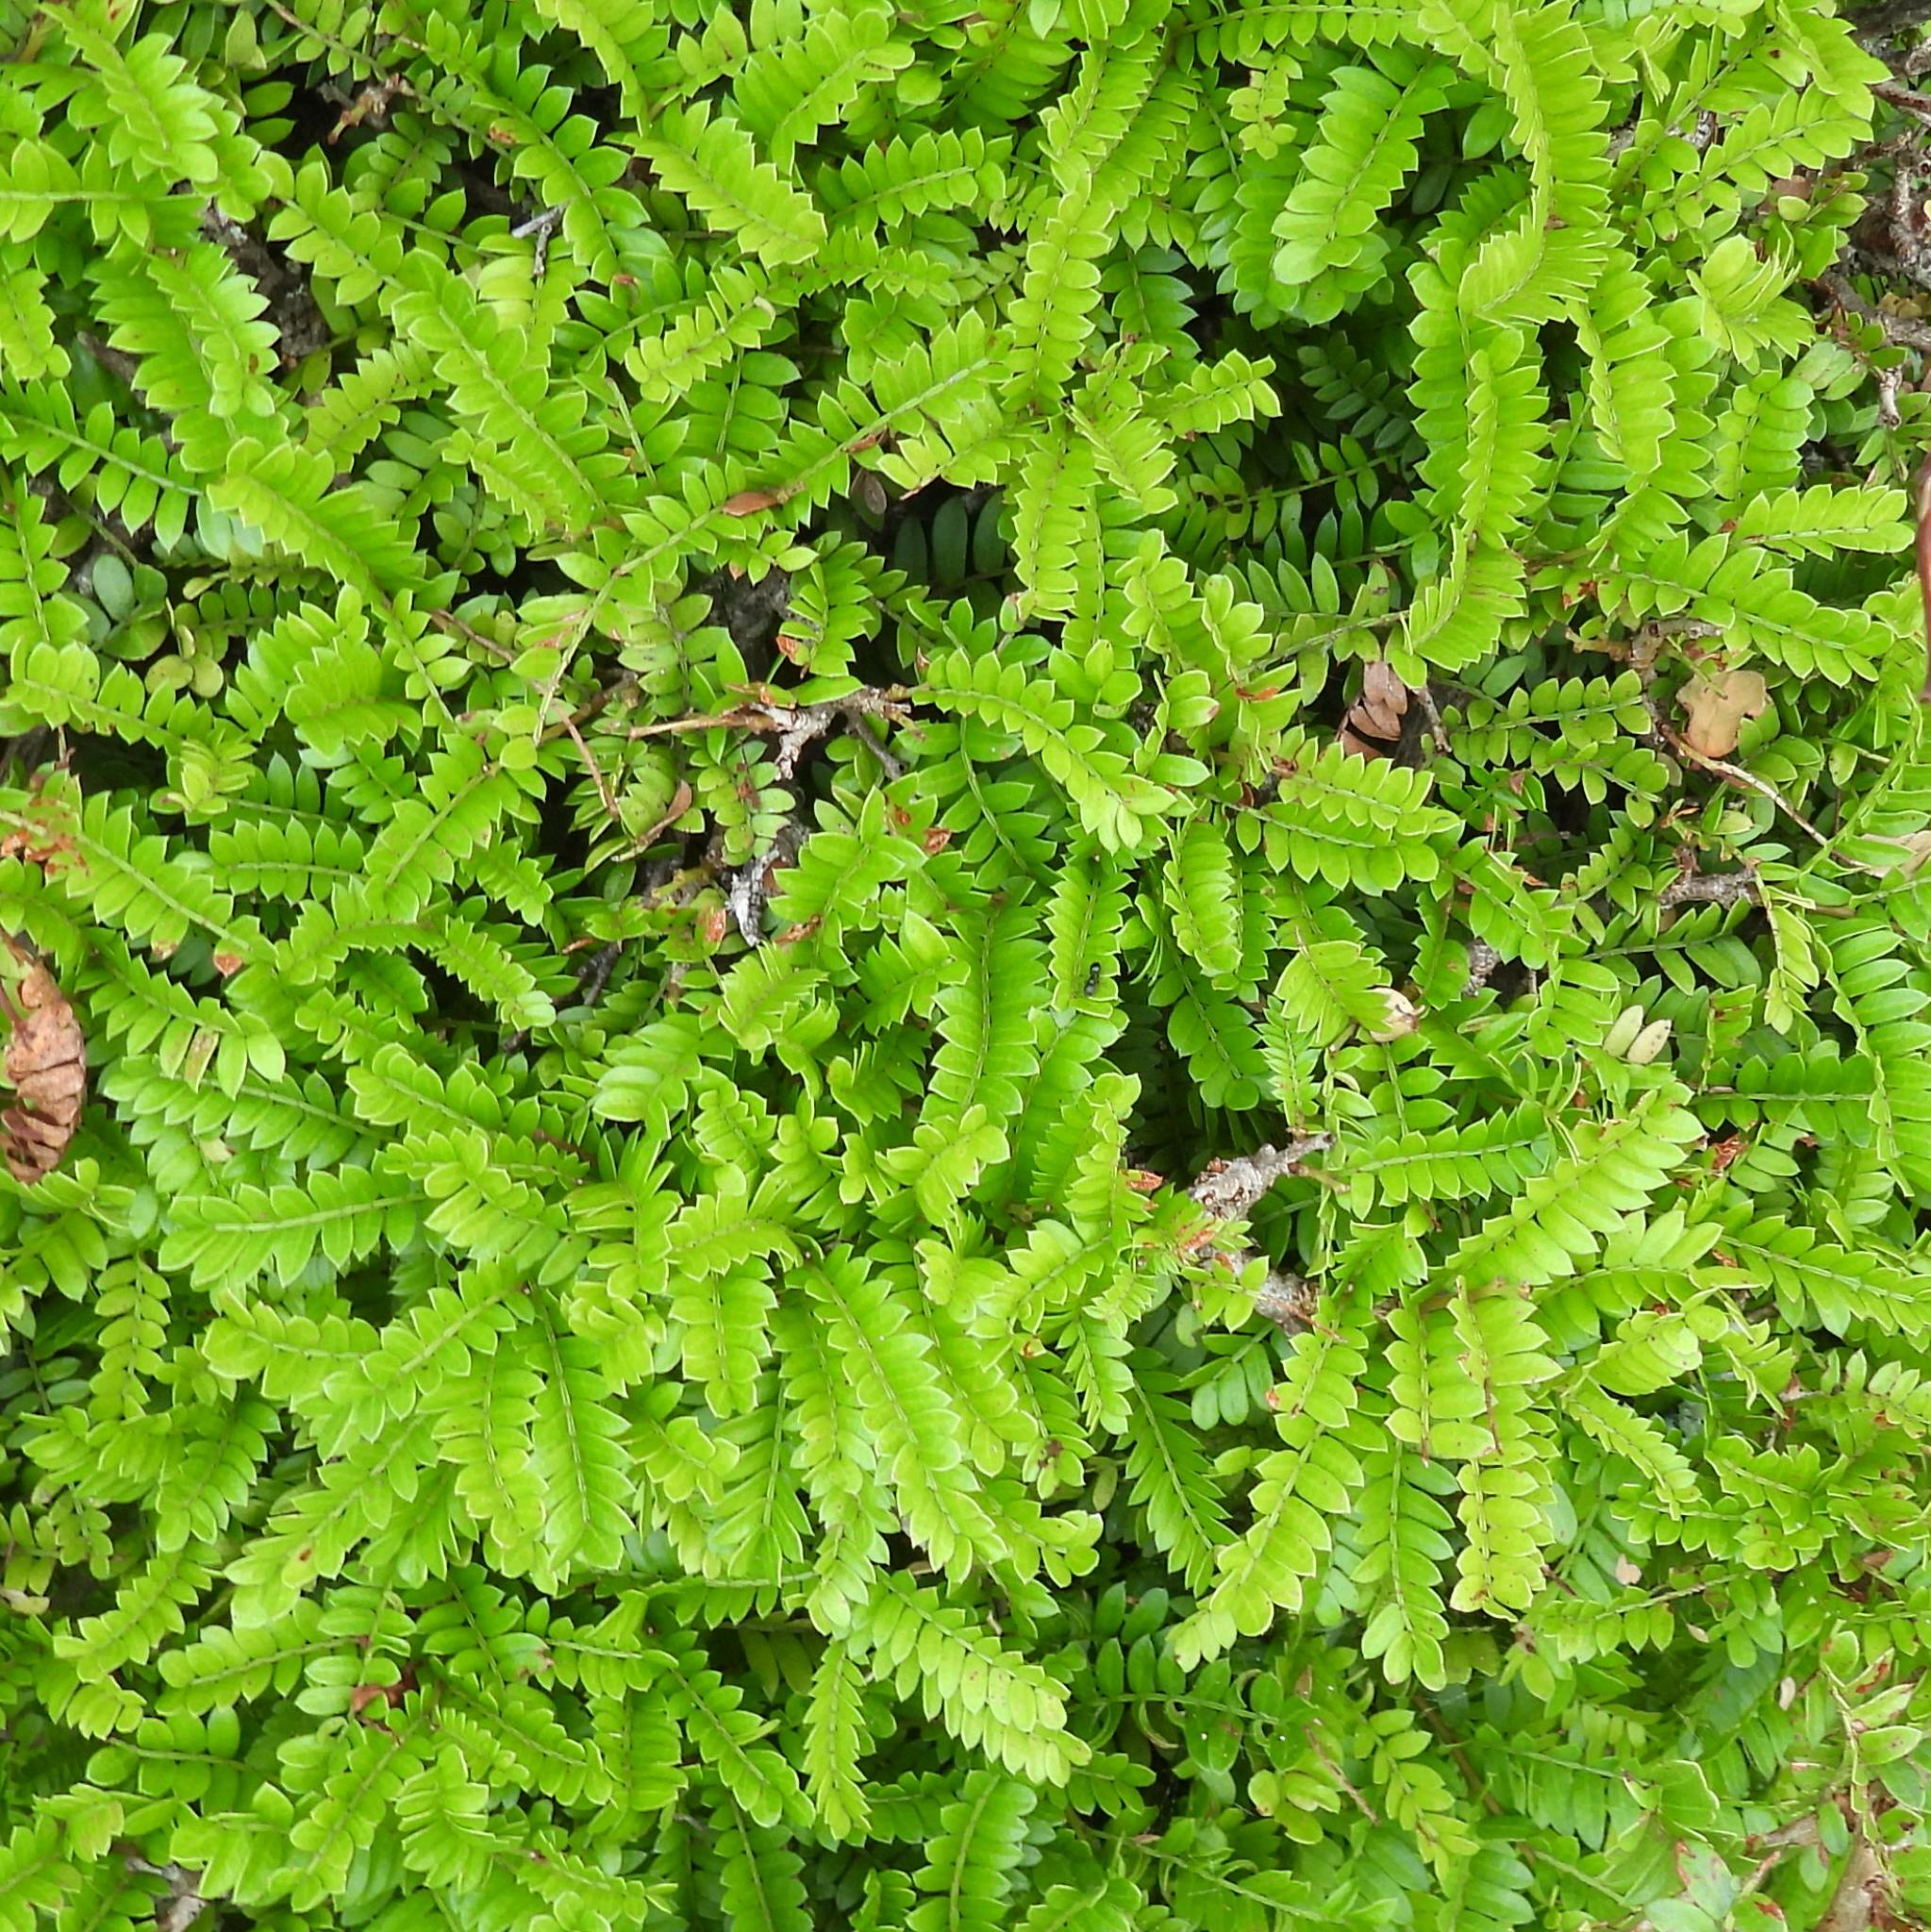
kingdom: Plantae
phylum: Tracheophyta
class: Magnoliopsida
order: Fabales
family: Fabaceae
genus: Schotia
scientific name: Schotia afra
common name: Hottentot's bean
